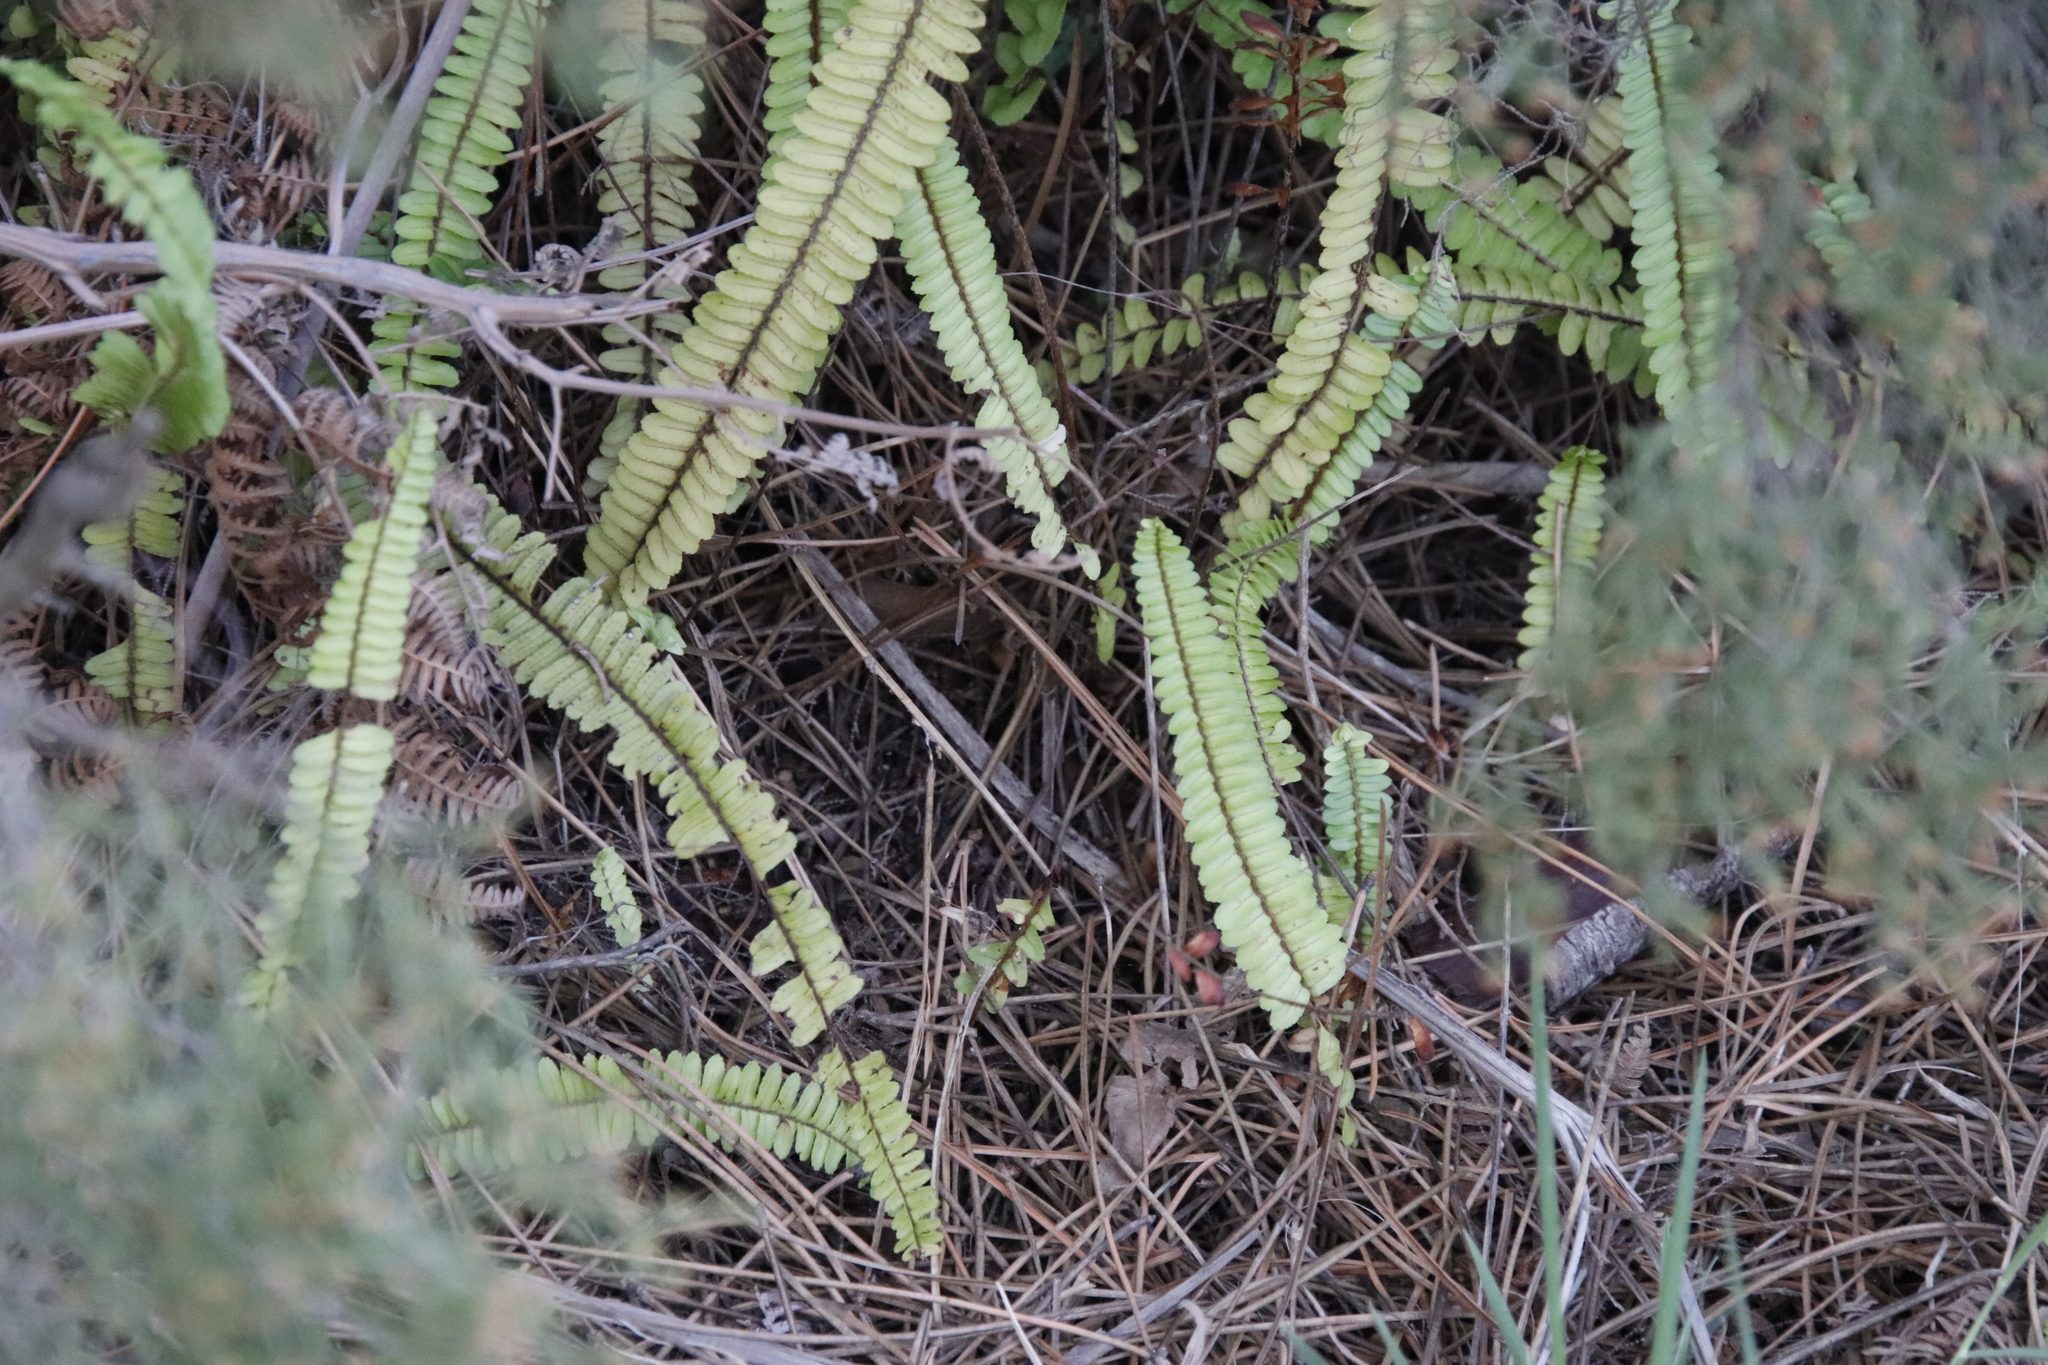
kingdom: Plantae
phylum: Tracheophyta
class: Polypodiopsida
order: Polypodiales
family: Nephrolepidaceae
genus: Nephrolepis
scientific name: Nephrolepis cordifolia
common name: Narrow swordfern
